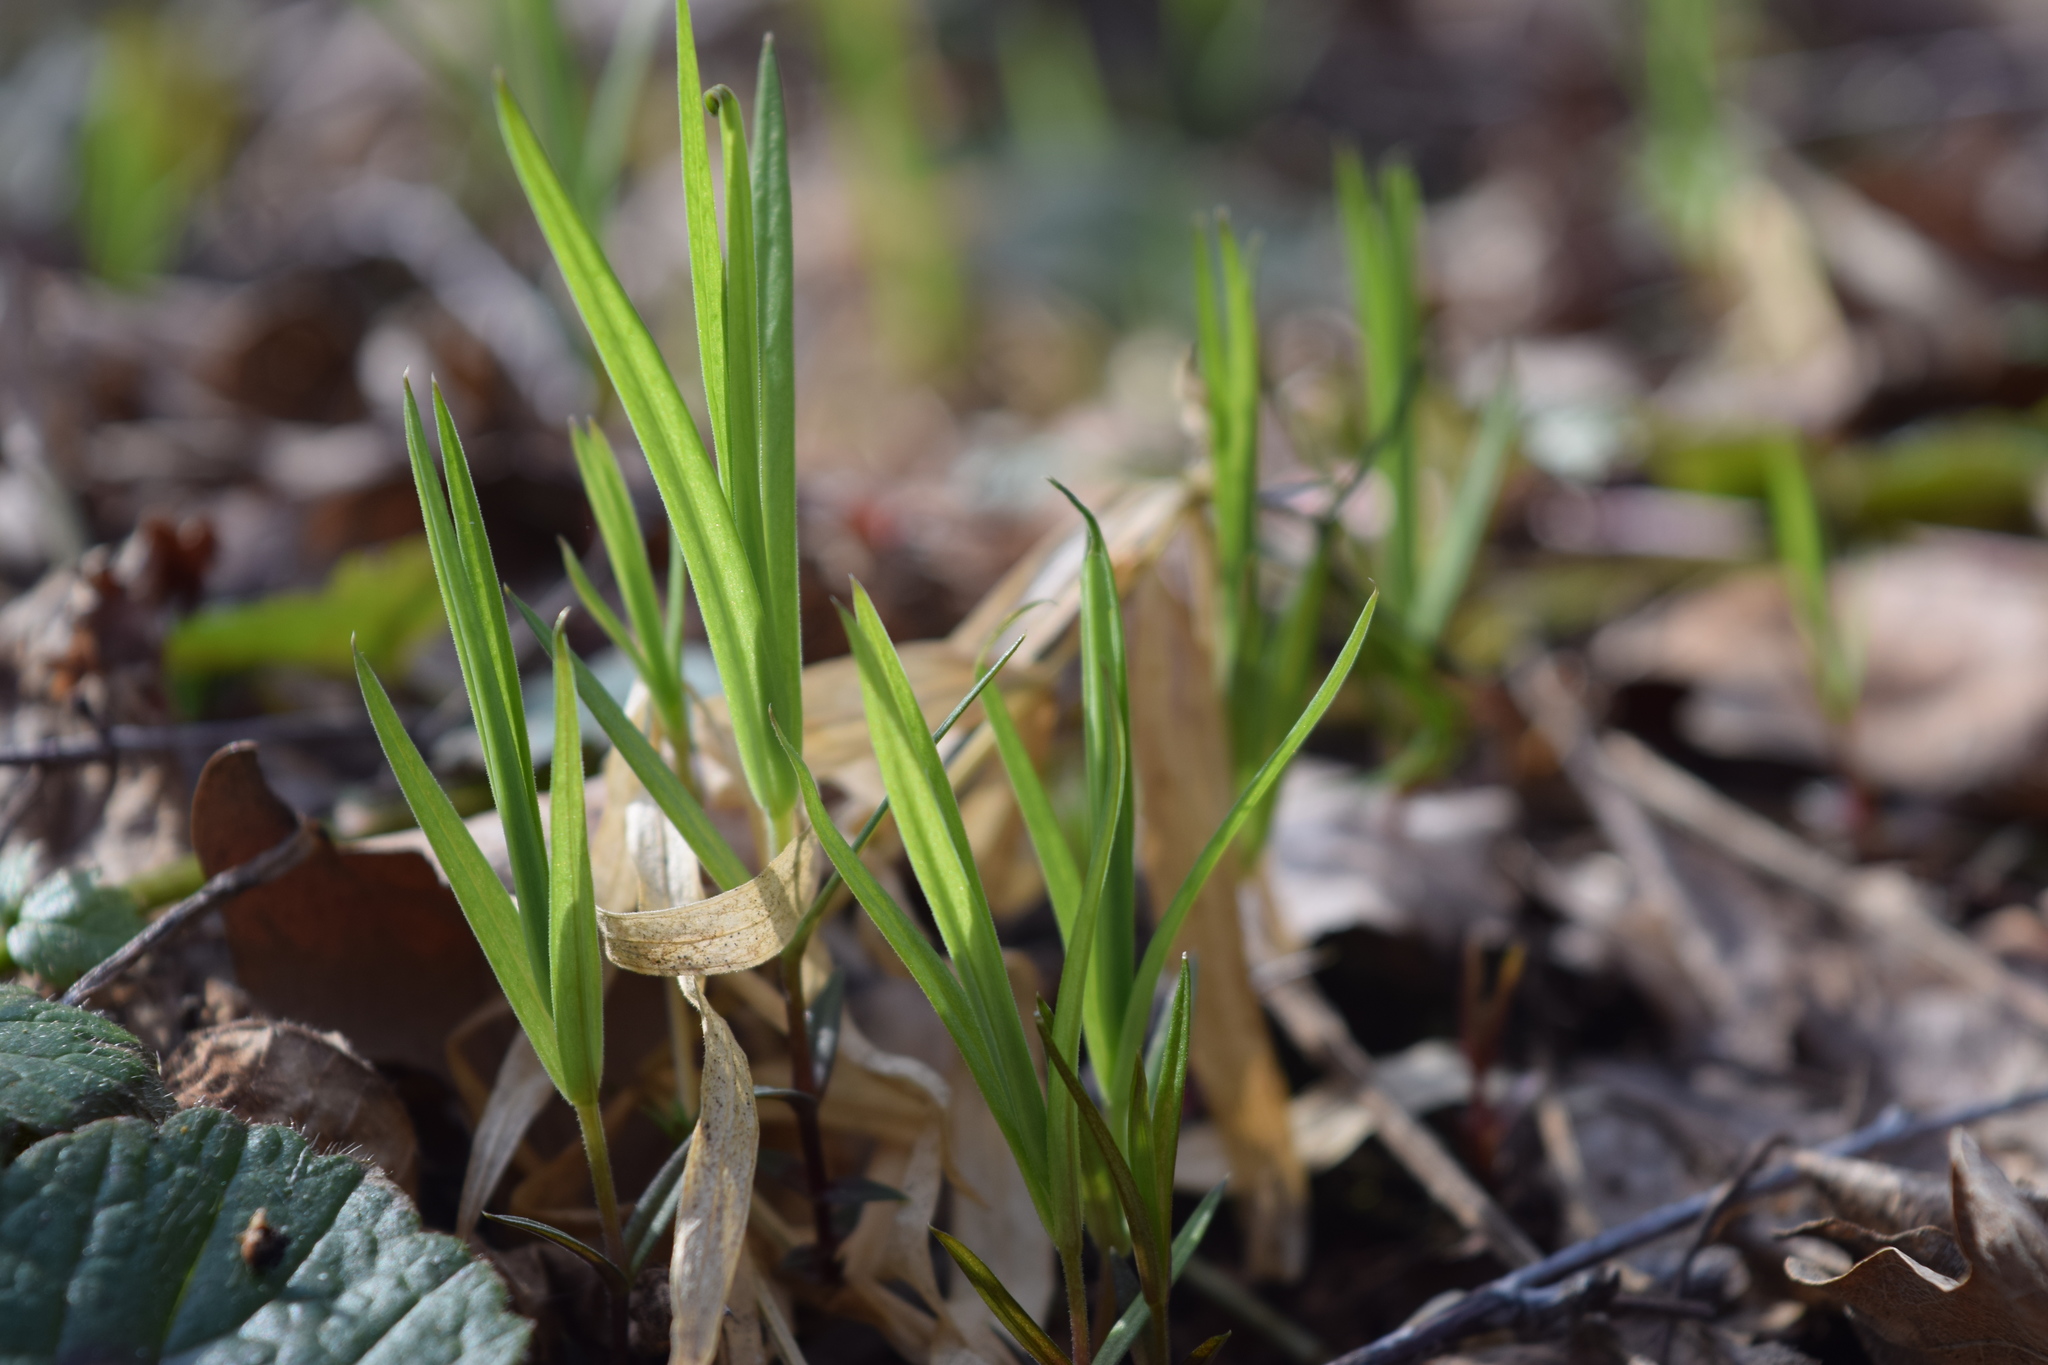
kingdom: Plantae
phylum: Tracheophyta
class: Magnoliopsida
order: Caryophyllales
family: Caryophyllaceae
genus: Rabelera
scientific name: Rabelera holostea
